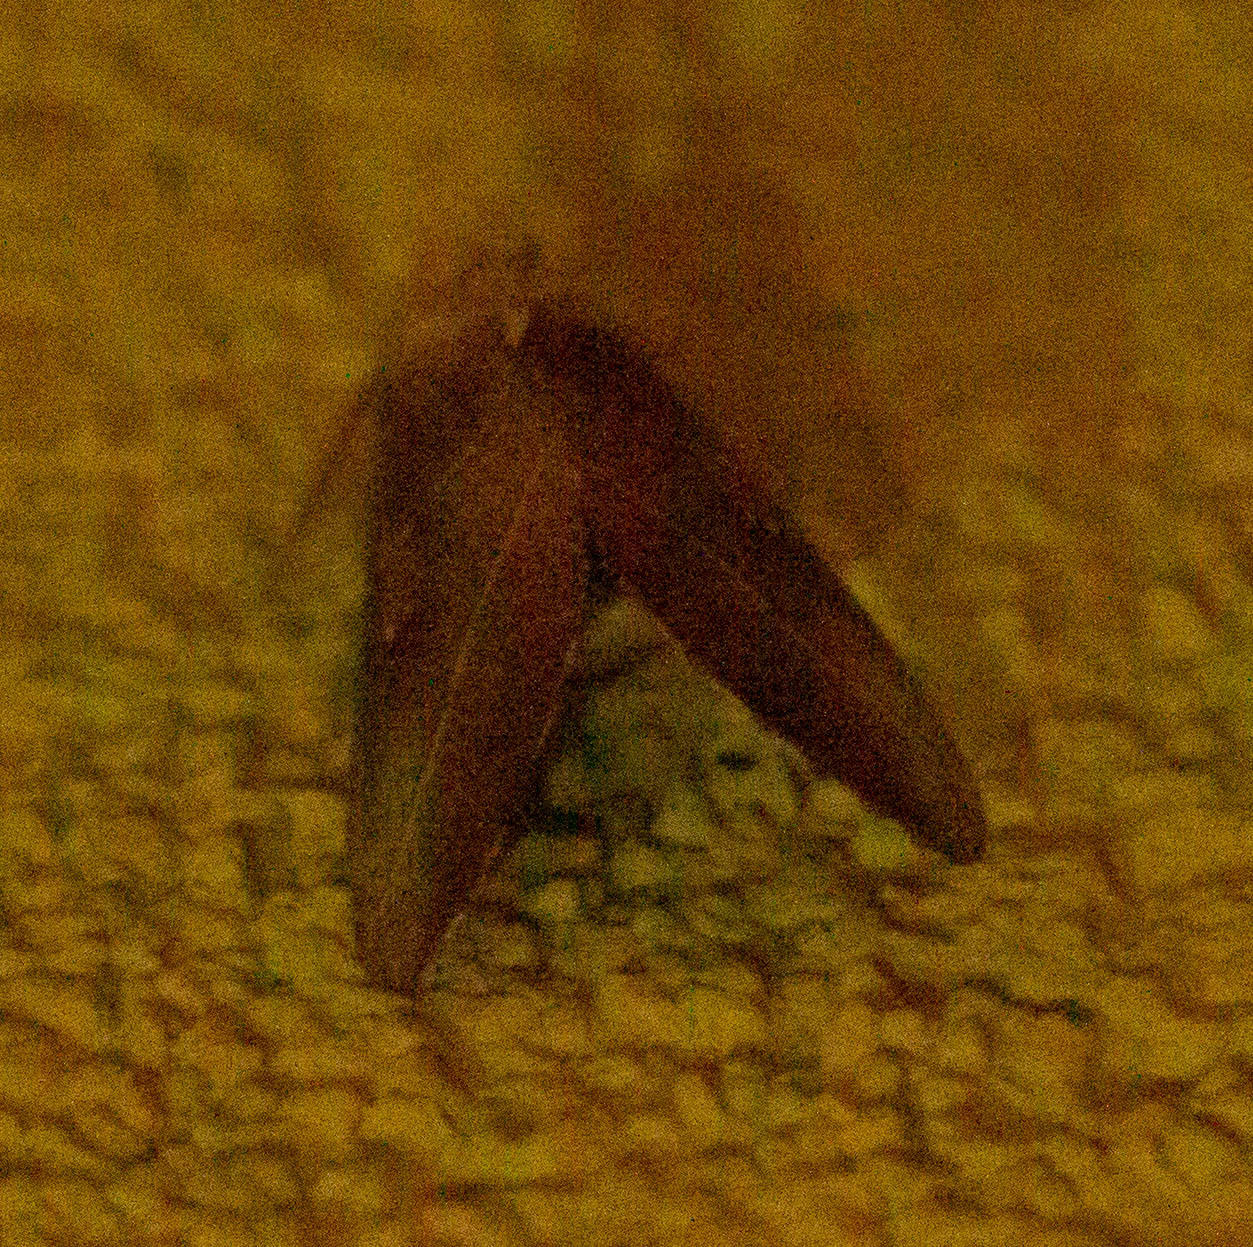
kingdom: Animalia
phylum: Arthropoda
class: Insecta
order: Lepidoptera
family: Notodontidae
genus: Nadata
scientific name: Nadata gibbosa
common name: White-dotted prominent
